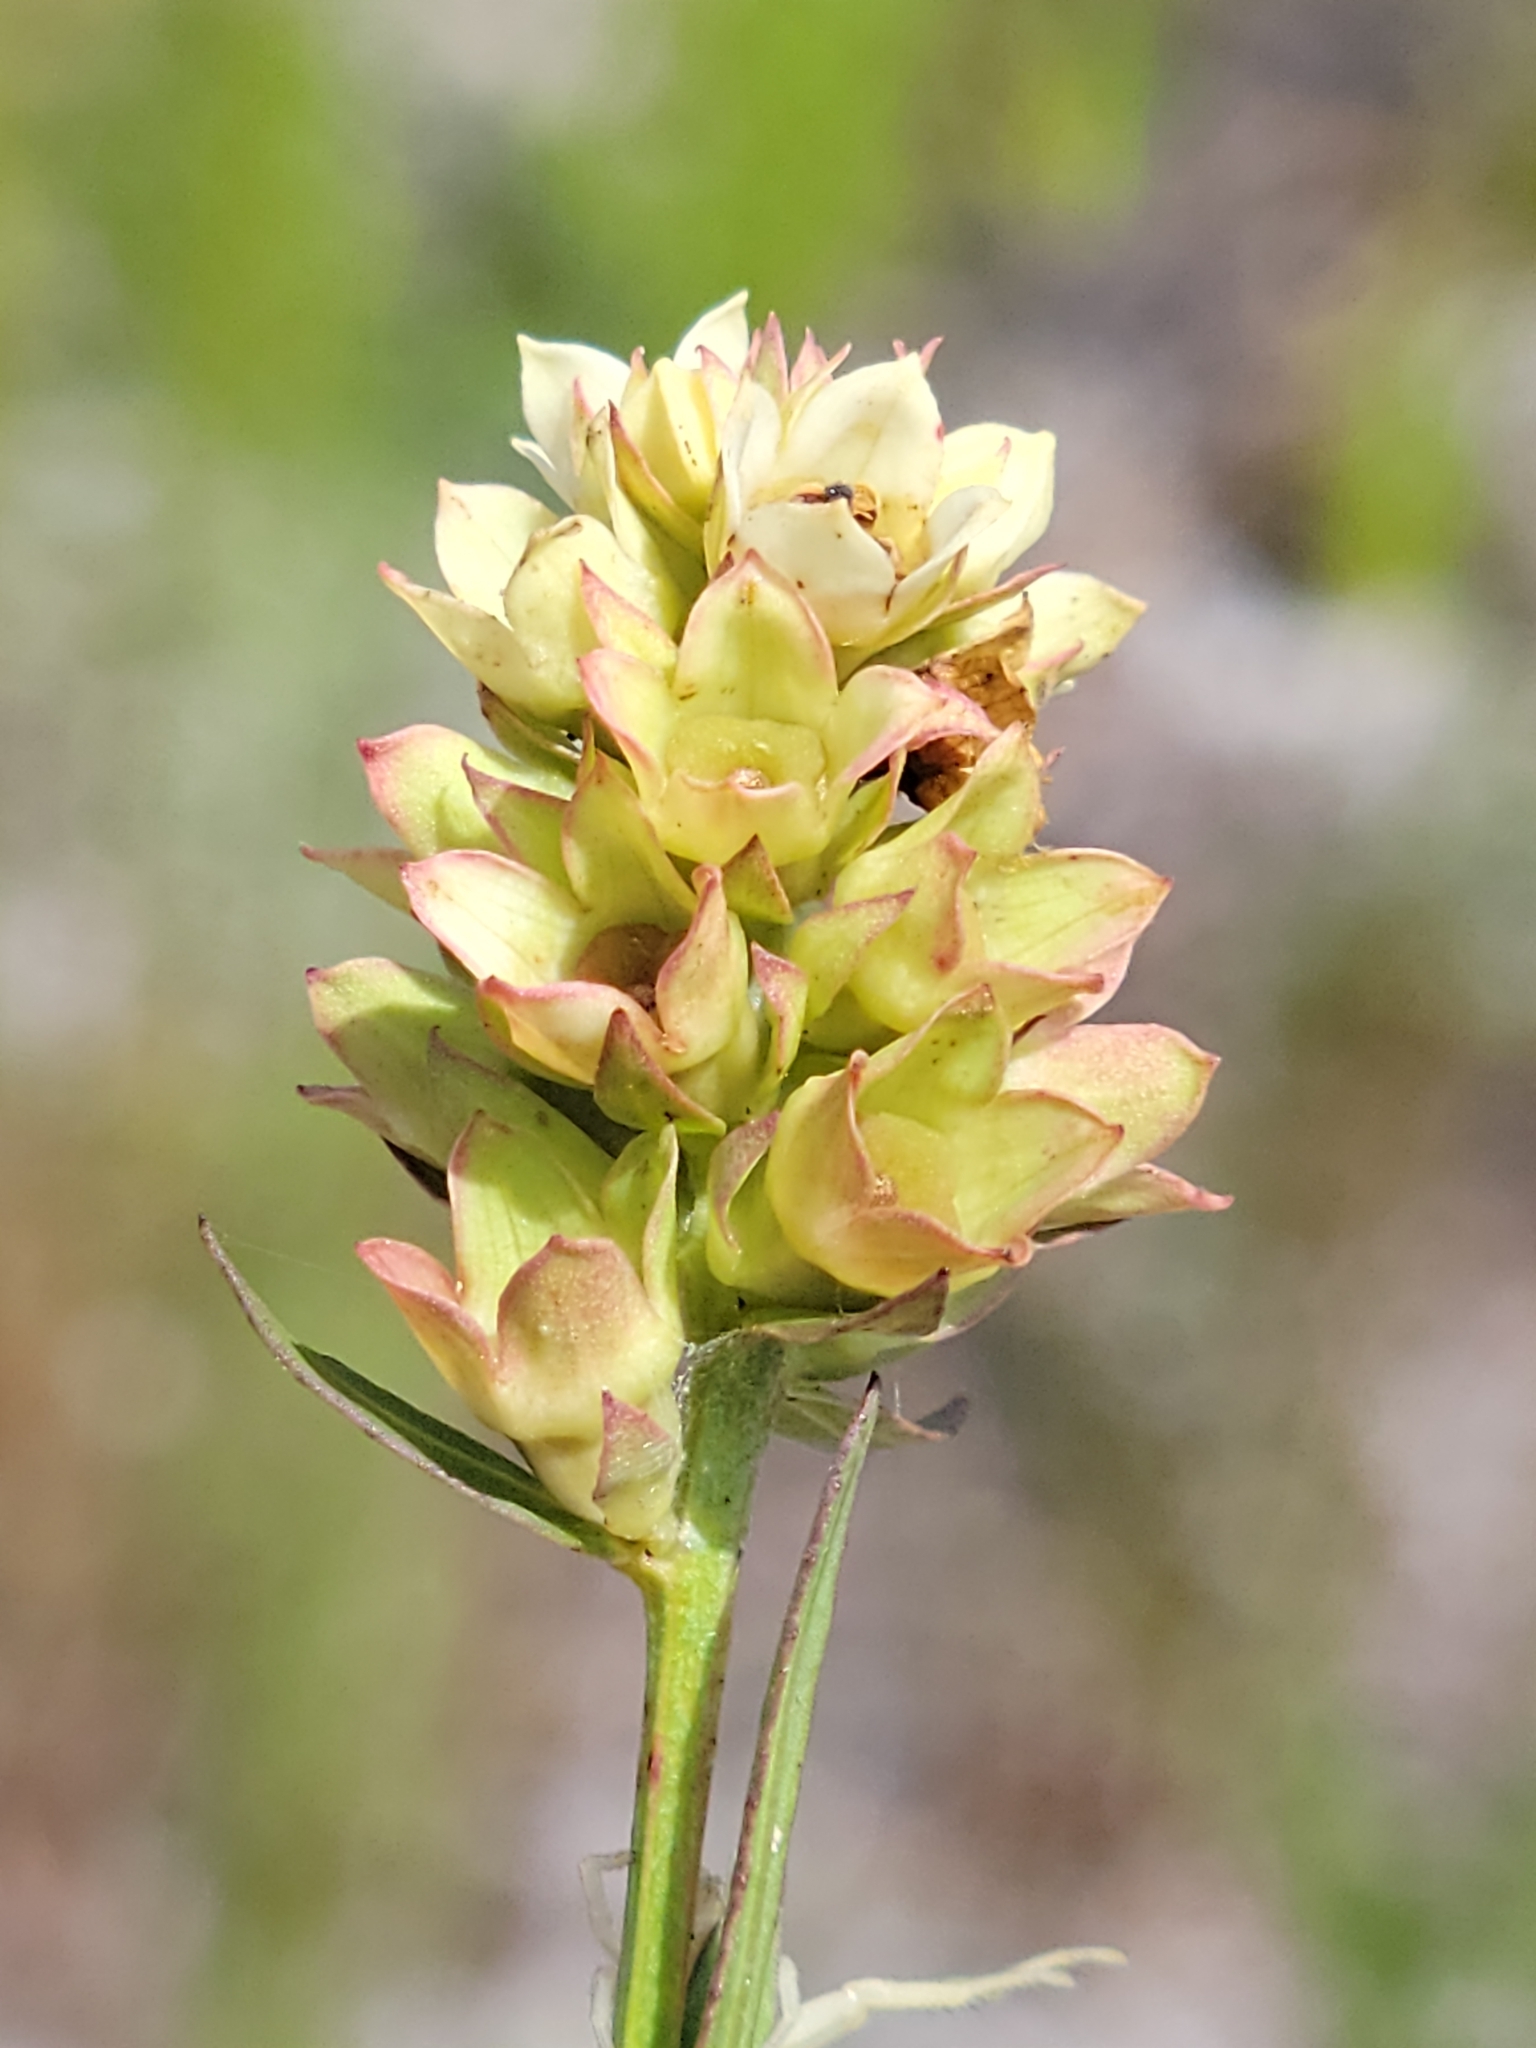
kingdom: Plantae
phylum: Tracheophyta
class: Magnoliopsida
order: Myrtales
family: Onagraceae
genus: Ludwigia
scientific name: Ludwigia suffruticosa
